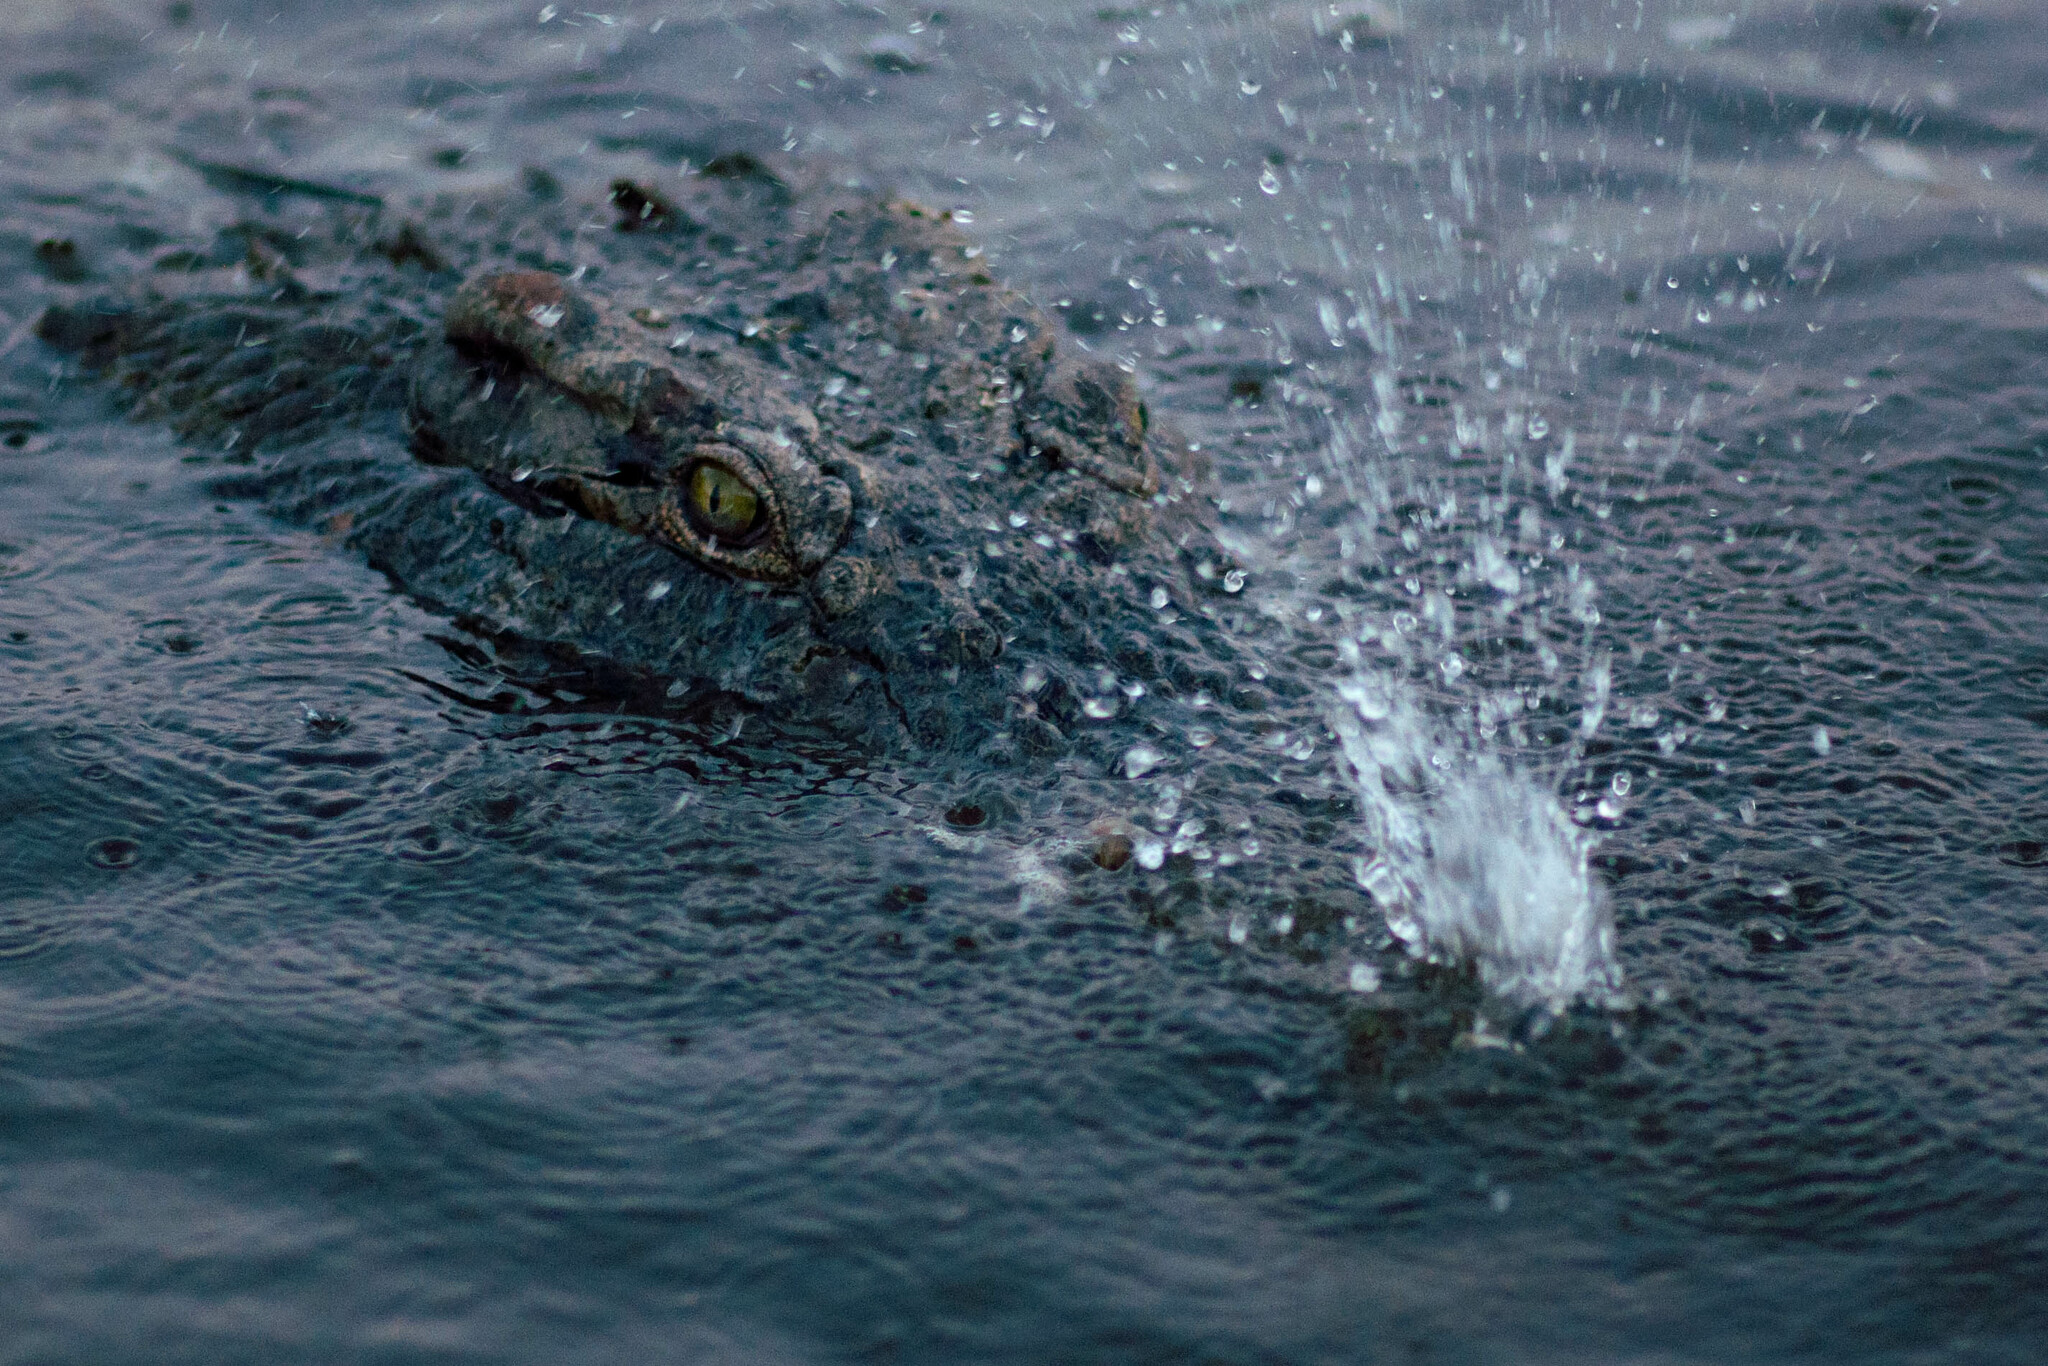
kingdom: Animalia
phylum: Chordata
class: Crocodylia
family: Crocodylidae
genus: Crocodylus
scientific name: Crocodylus niloticus
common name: Nile crocodile
